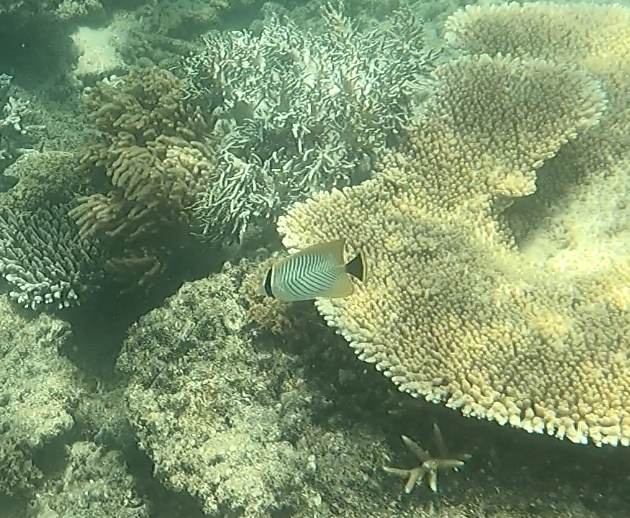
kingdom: Animalia
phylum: Chordata
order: Perciformes
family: Chaetodontidae
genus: Chaetodon
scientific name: Chaetodon trifascialis
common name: Chevroned butterflyfish
